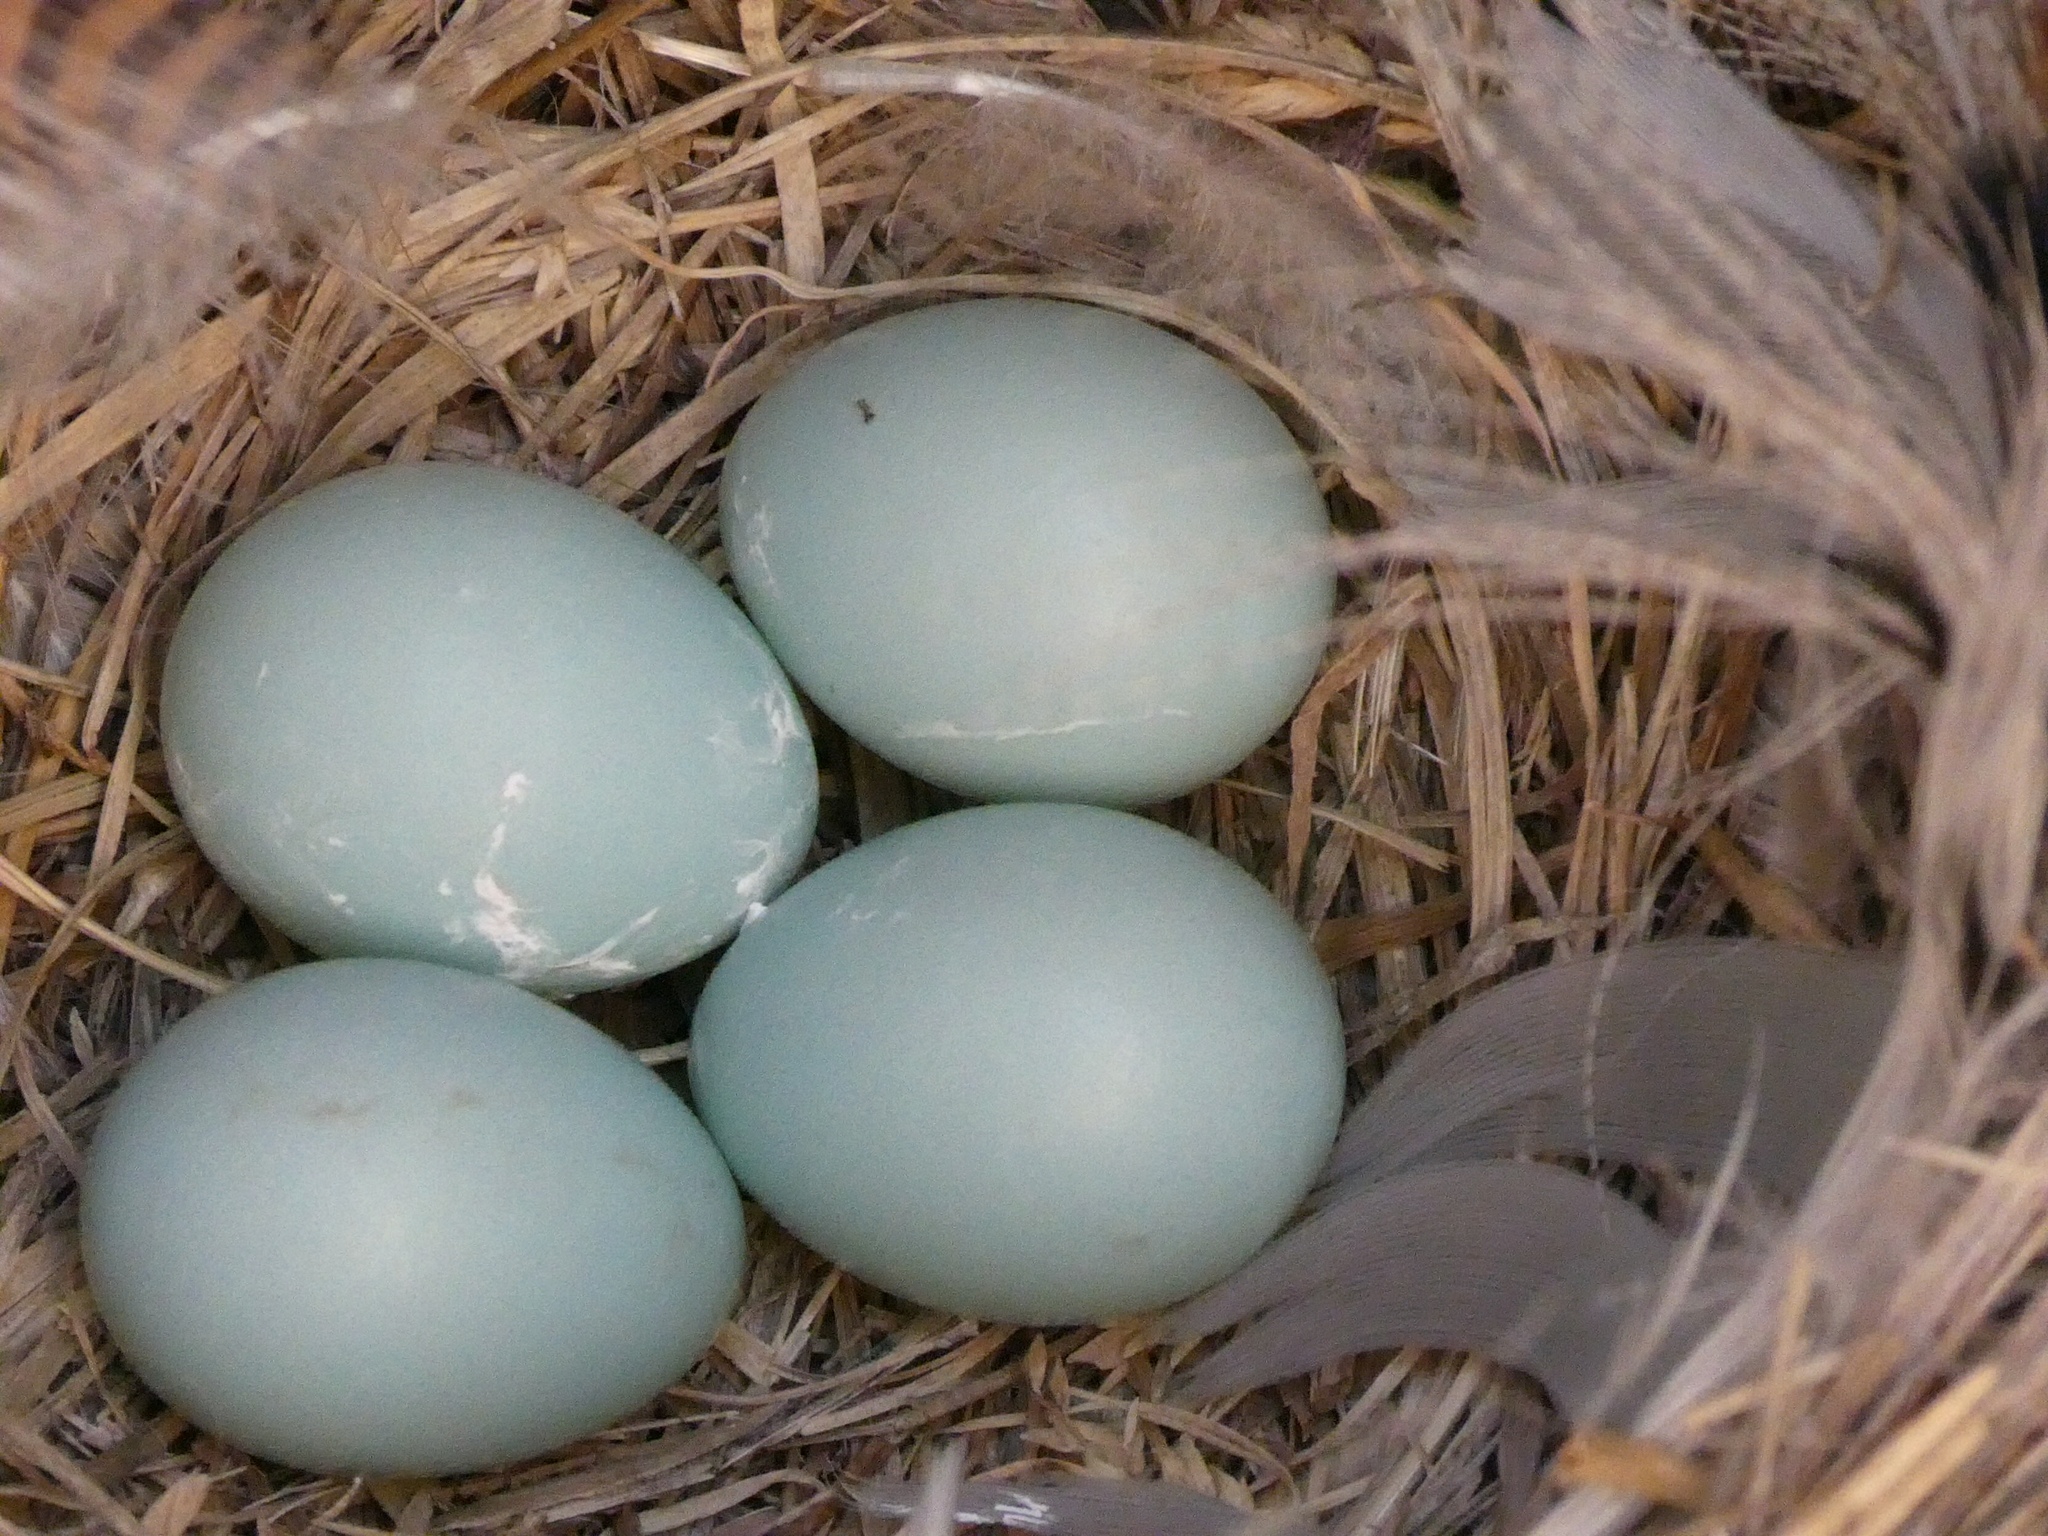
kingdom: Animalia
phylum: Chordata
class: Aves
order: Passeriformes
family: Turdidae
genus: Sialia
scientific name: Sialia sialis
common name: Eastern bluebird
